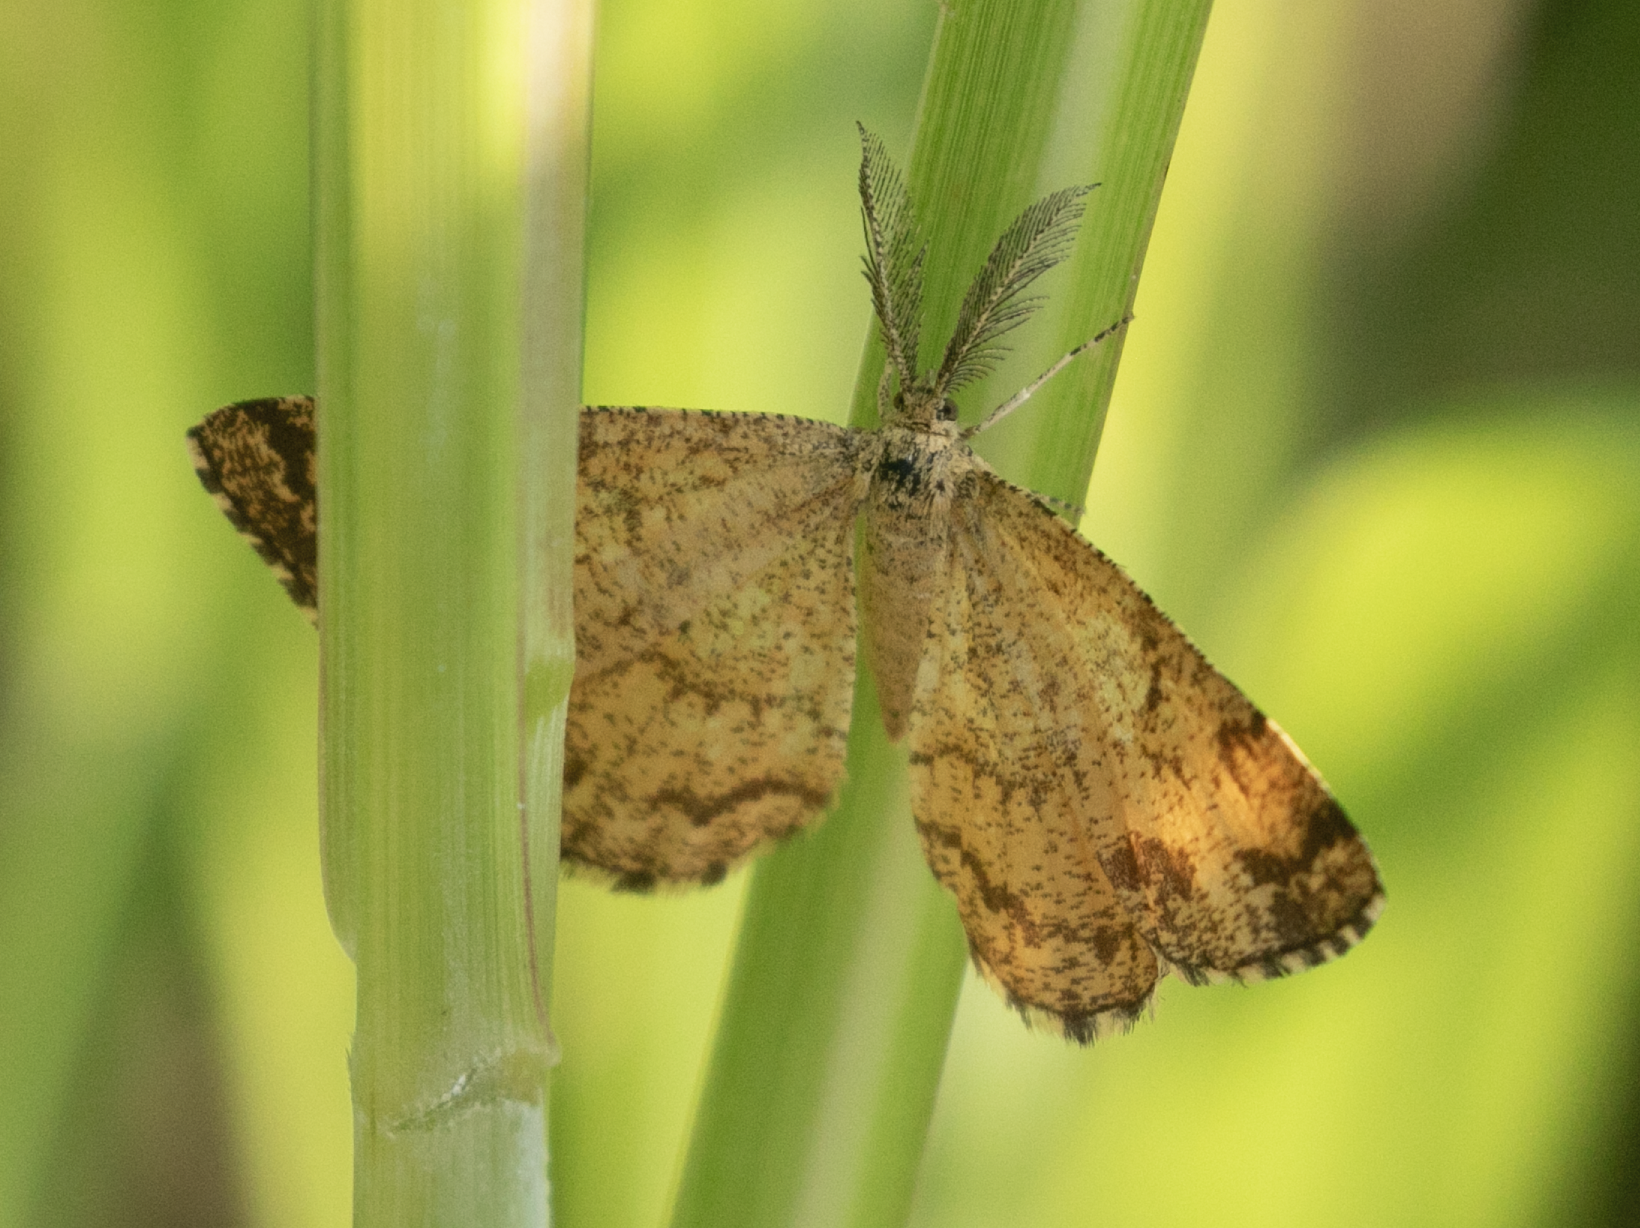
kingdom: Animalia
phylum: Arthropoda
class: Insecta
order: Lepidoptera
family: Geometridae
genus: Ematurga
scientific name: Ematurga atomaria
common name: Common heath
